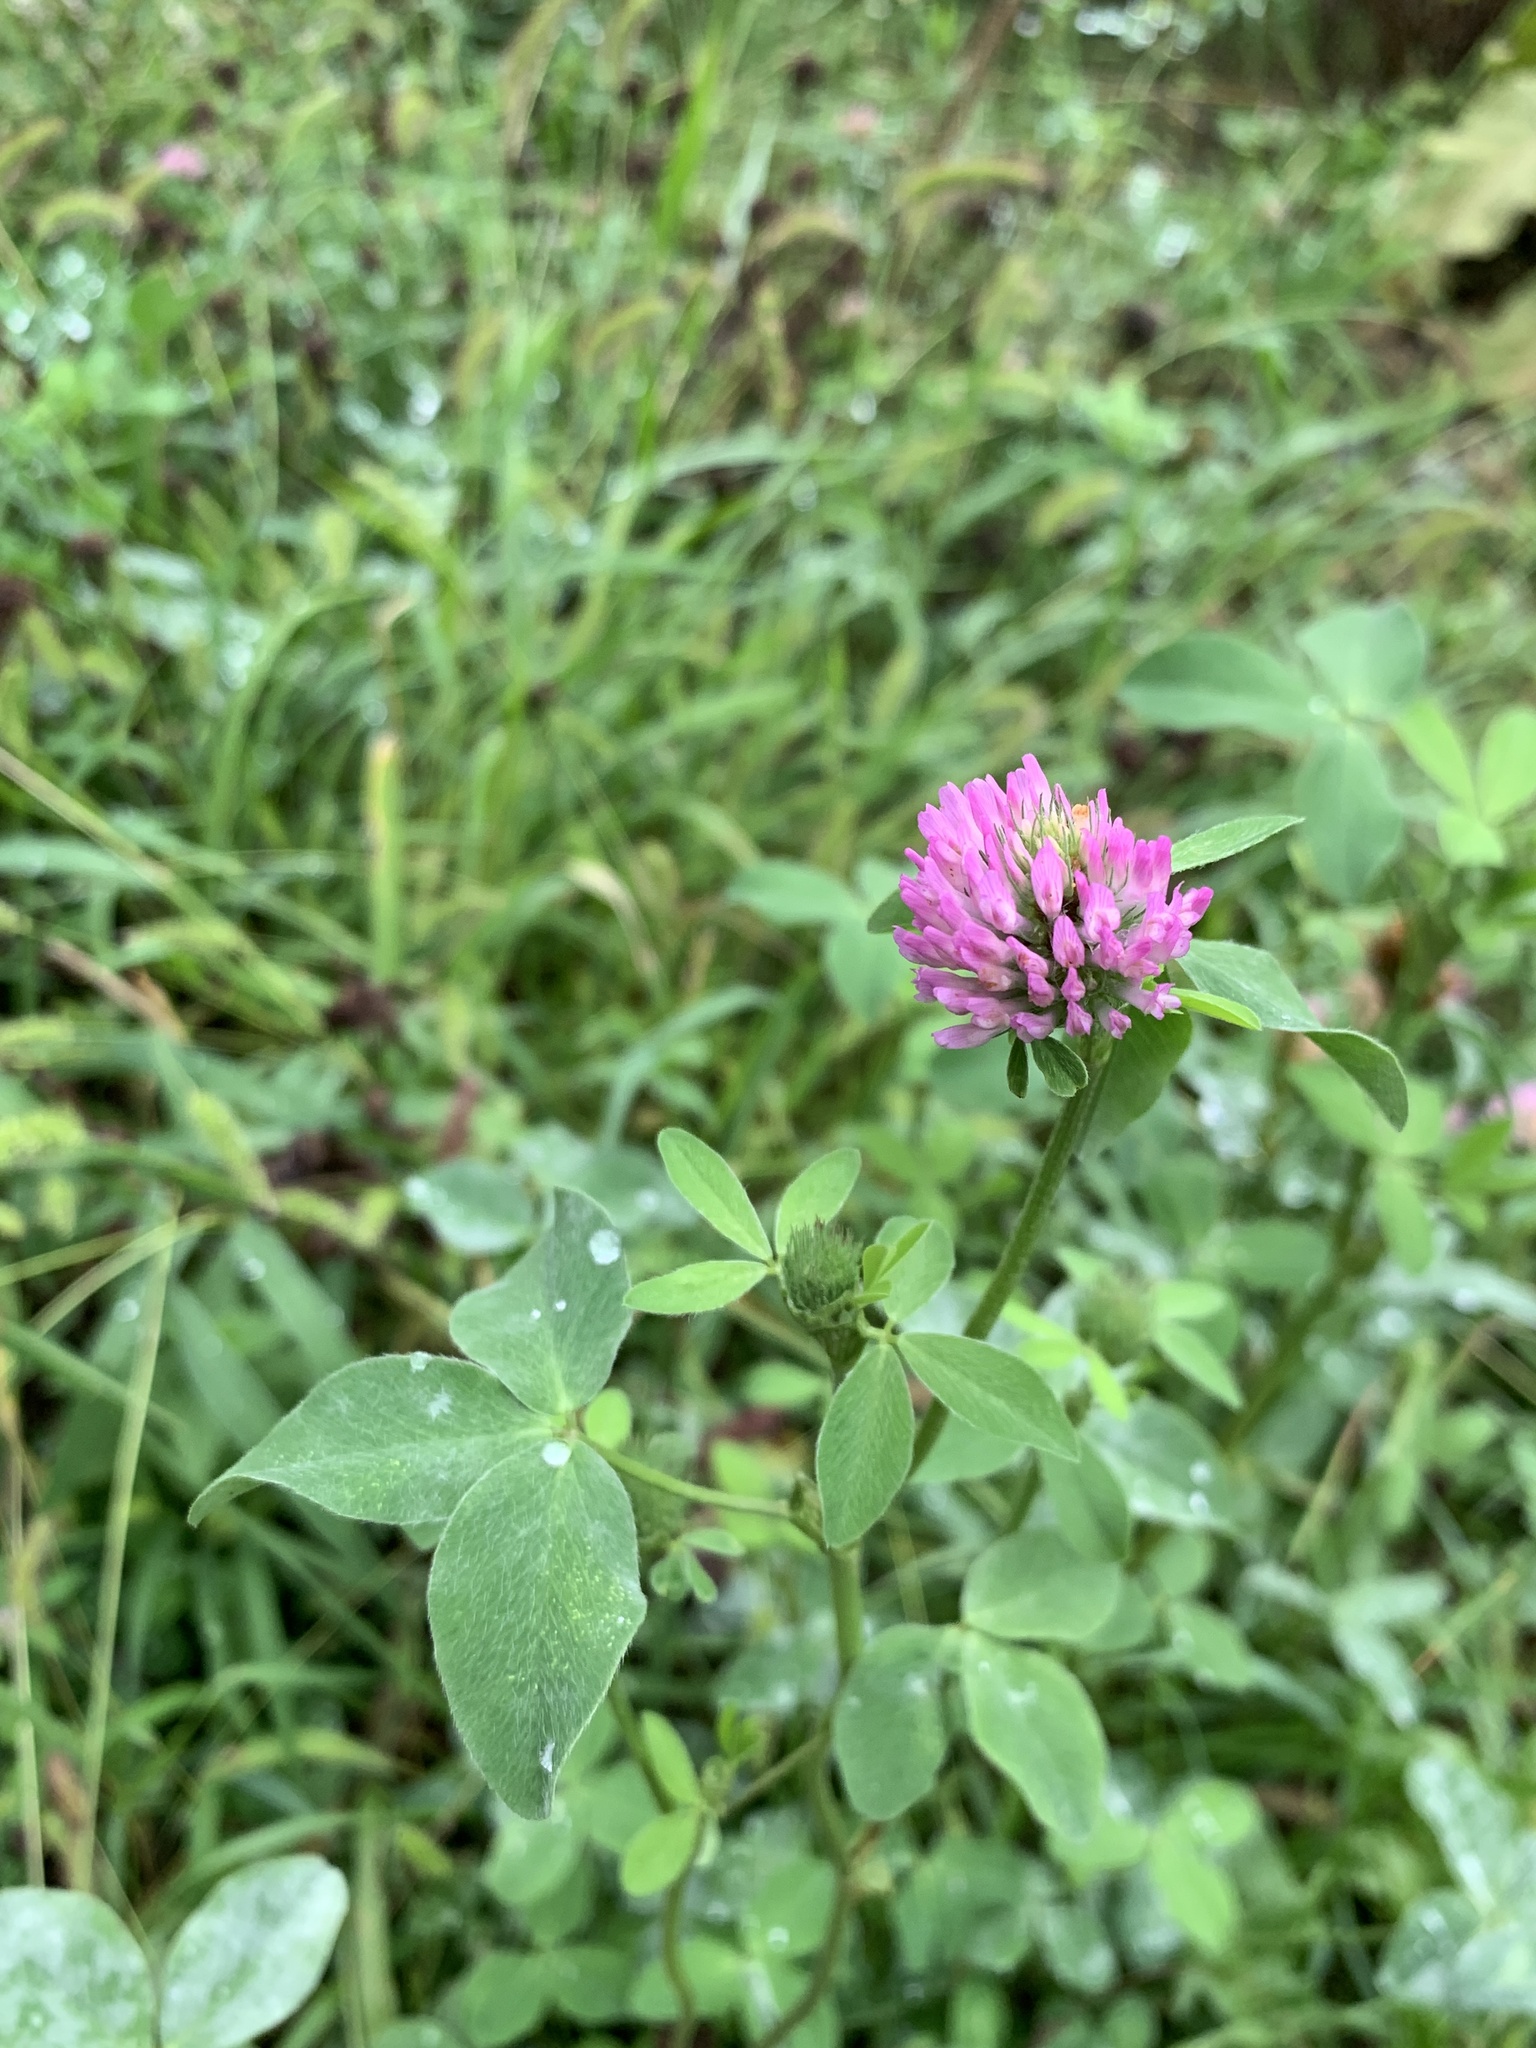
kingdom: Plantae
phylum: Tracheophyta
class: Magnoliopsida
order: Fabales
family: Fabaceae
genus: Trifolium
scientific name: Trifolium pratense
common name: Red clover
